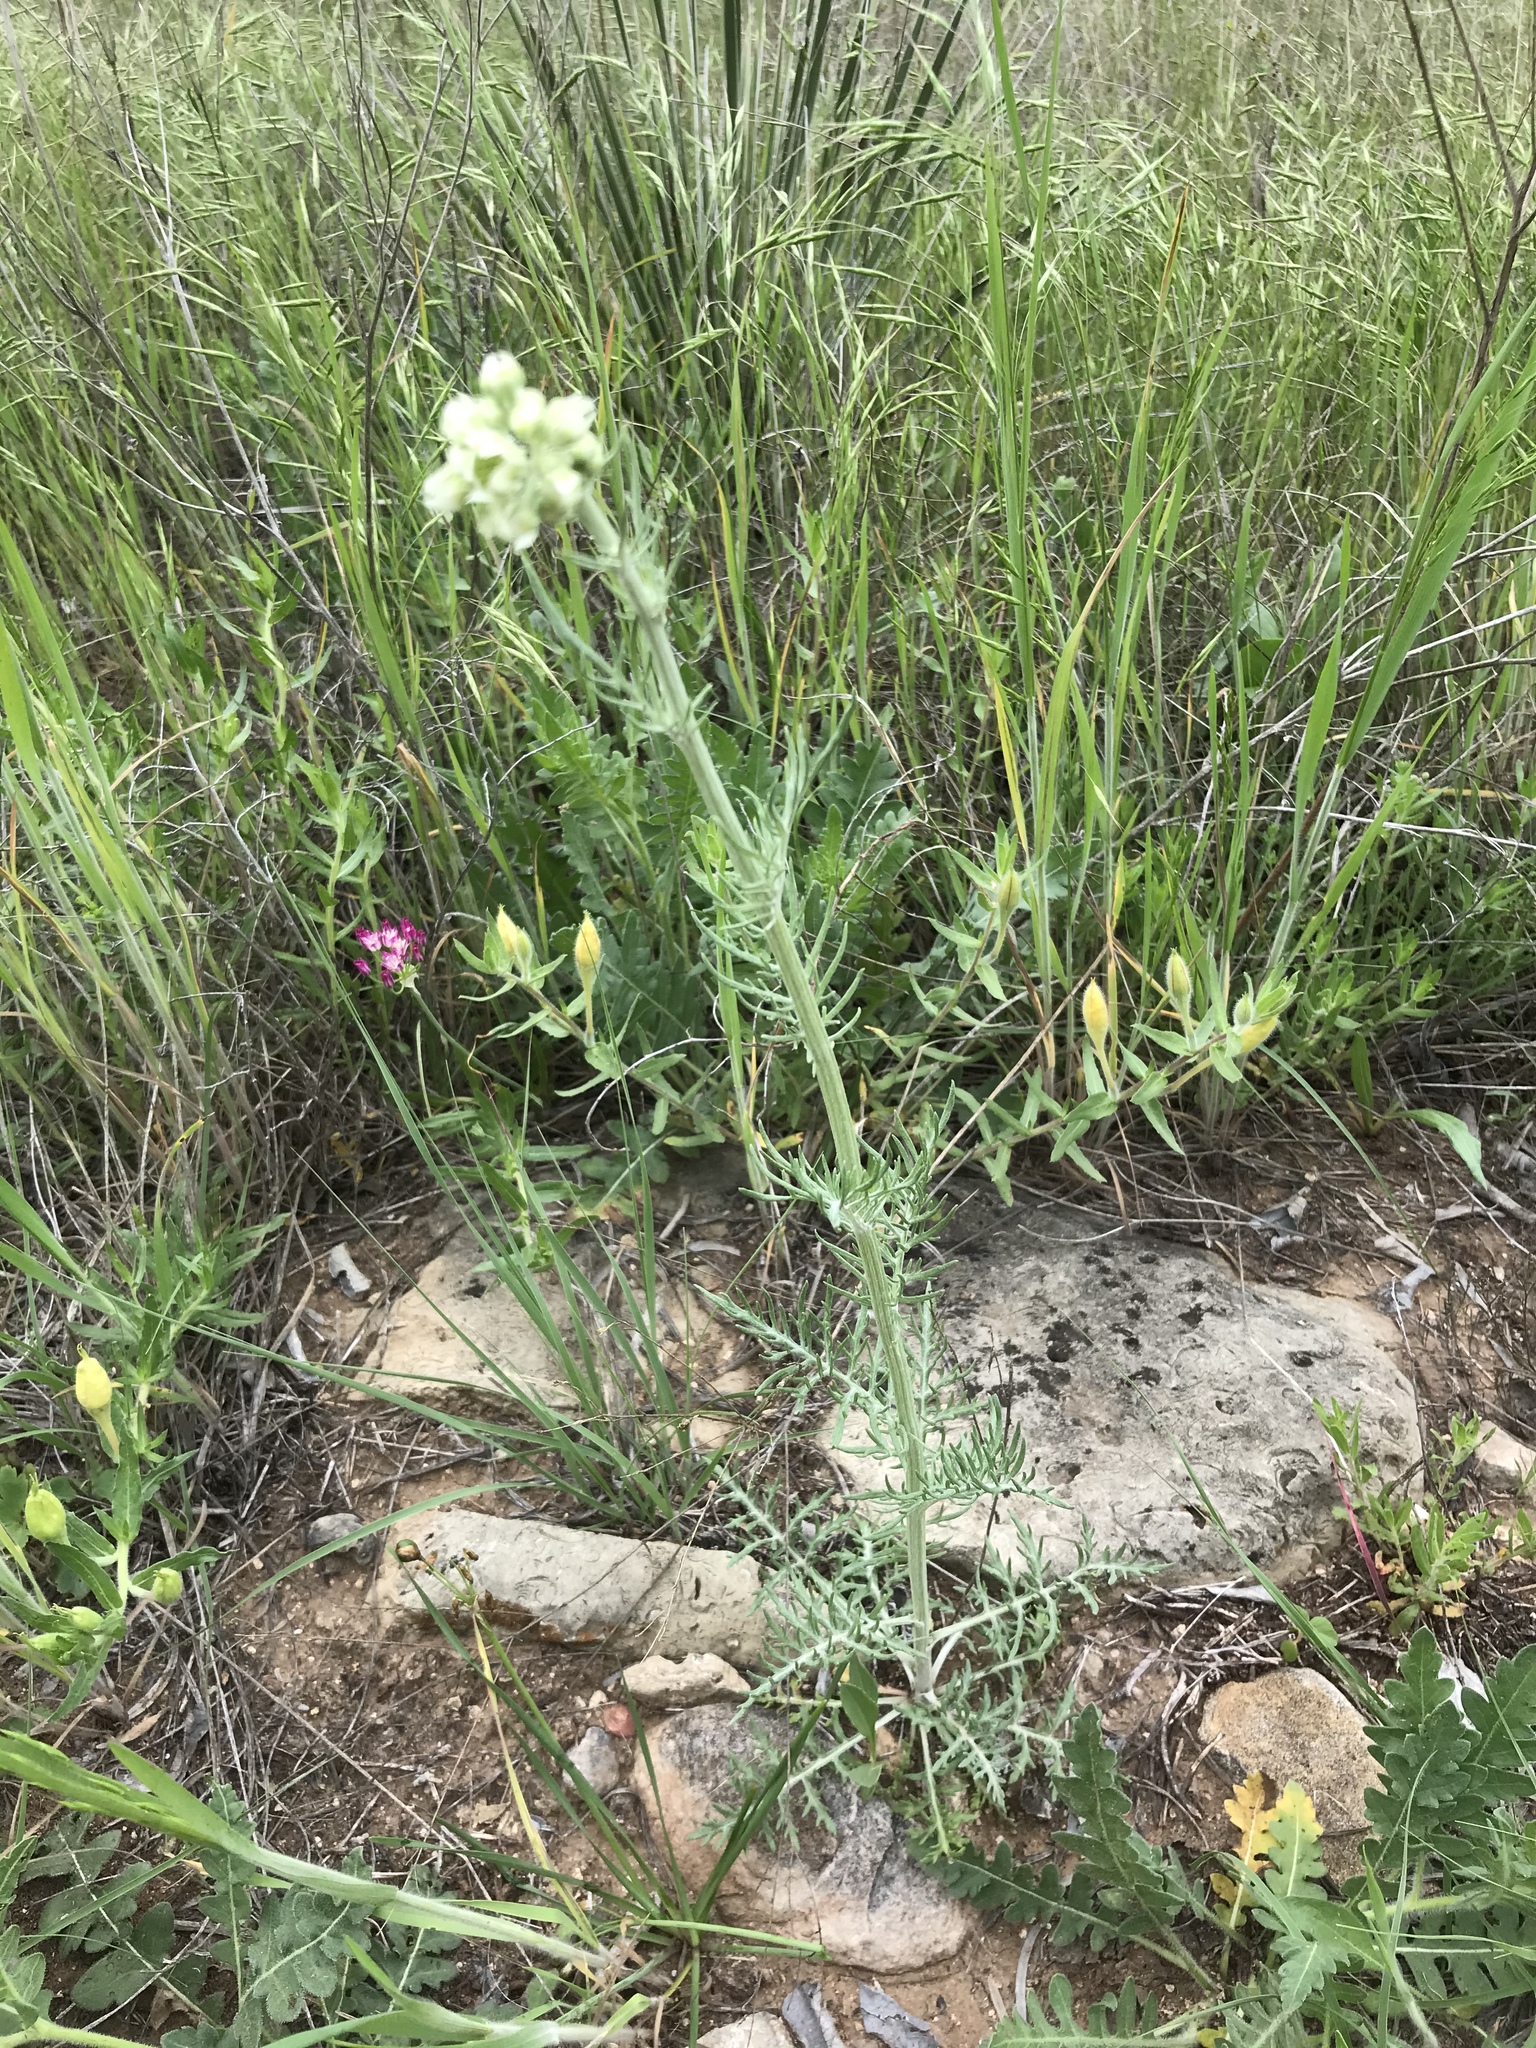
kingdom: Plantae
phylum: Tracheophyta
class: Magnoliopsida
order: Asterales
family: Asteraceae
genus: Hymenopappus
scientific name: Hymenopappus scabiosaeus
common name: Carolina woollywhite
